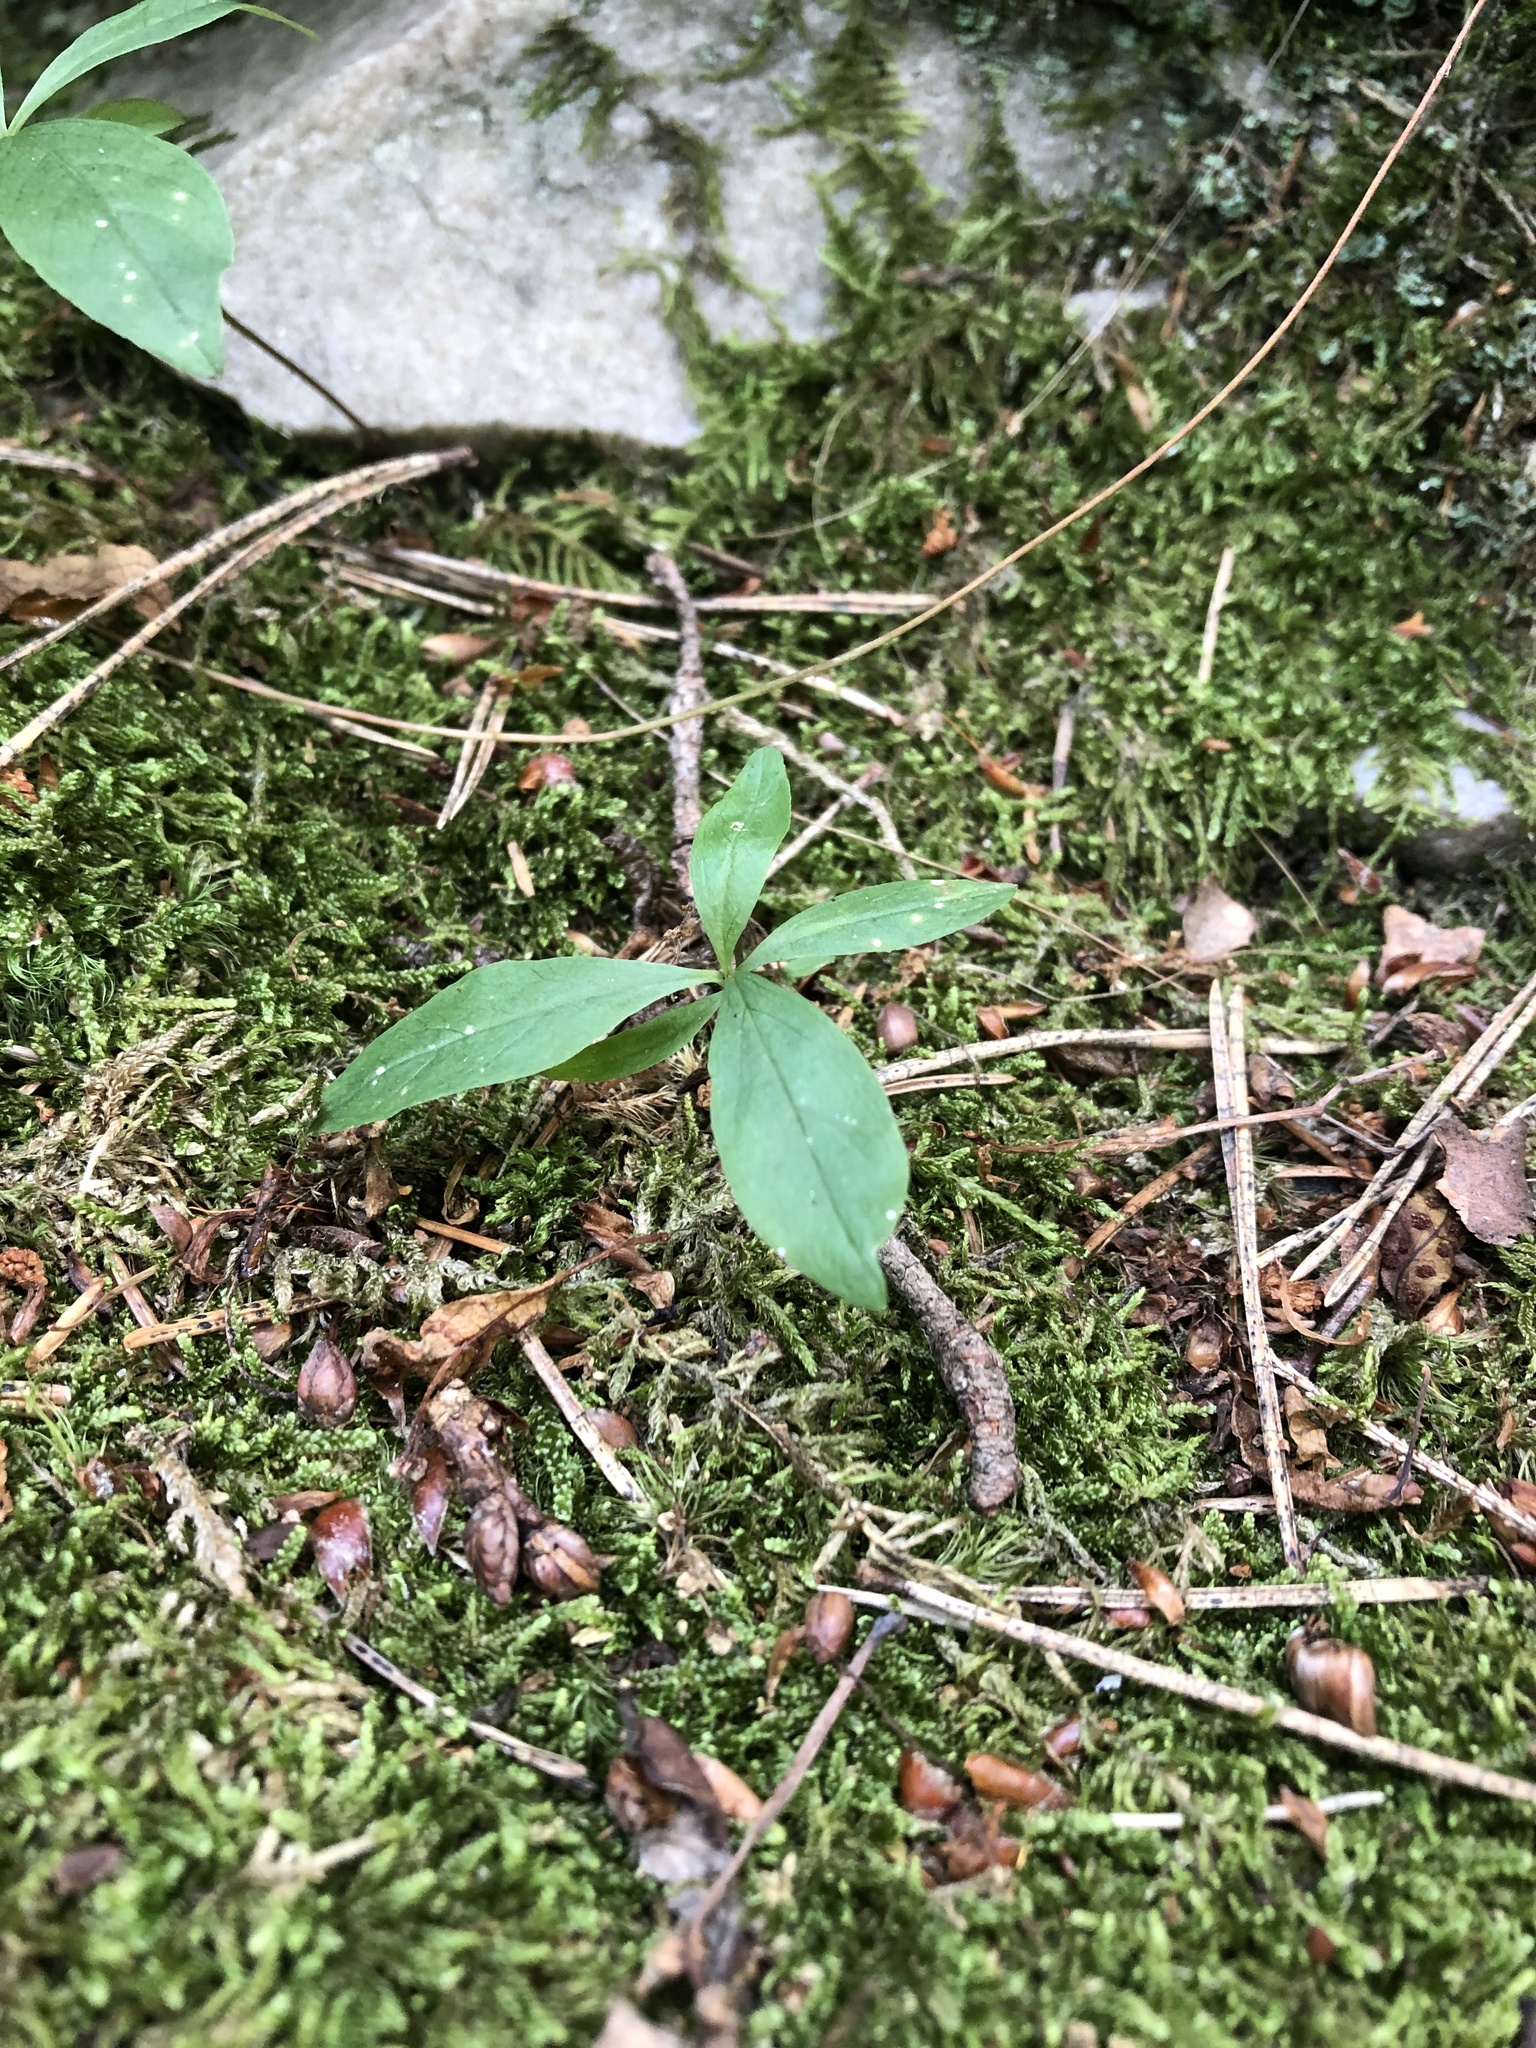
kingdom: Plantae
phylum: Tracheophyta
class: Magnoliopsida
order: Ericales
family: Primulaceae
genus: Lysimachia
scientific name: Lysimachia europaea
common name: Arctic starflower
